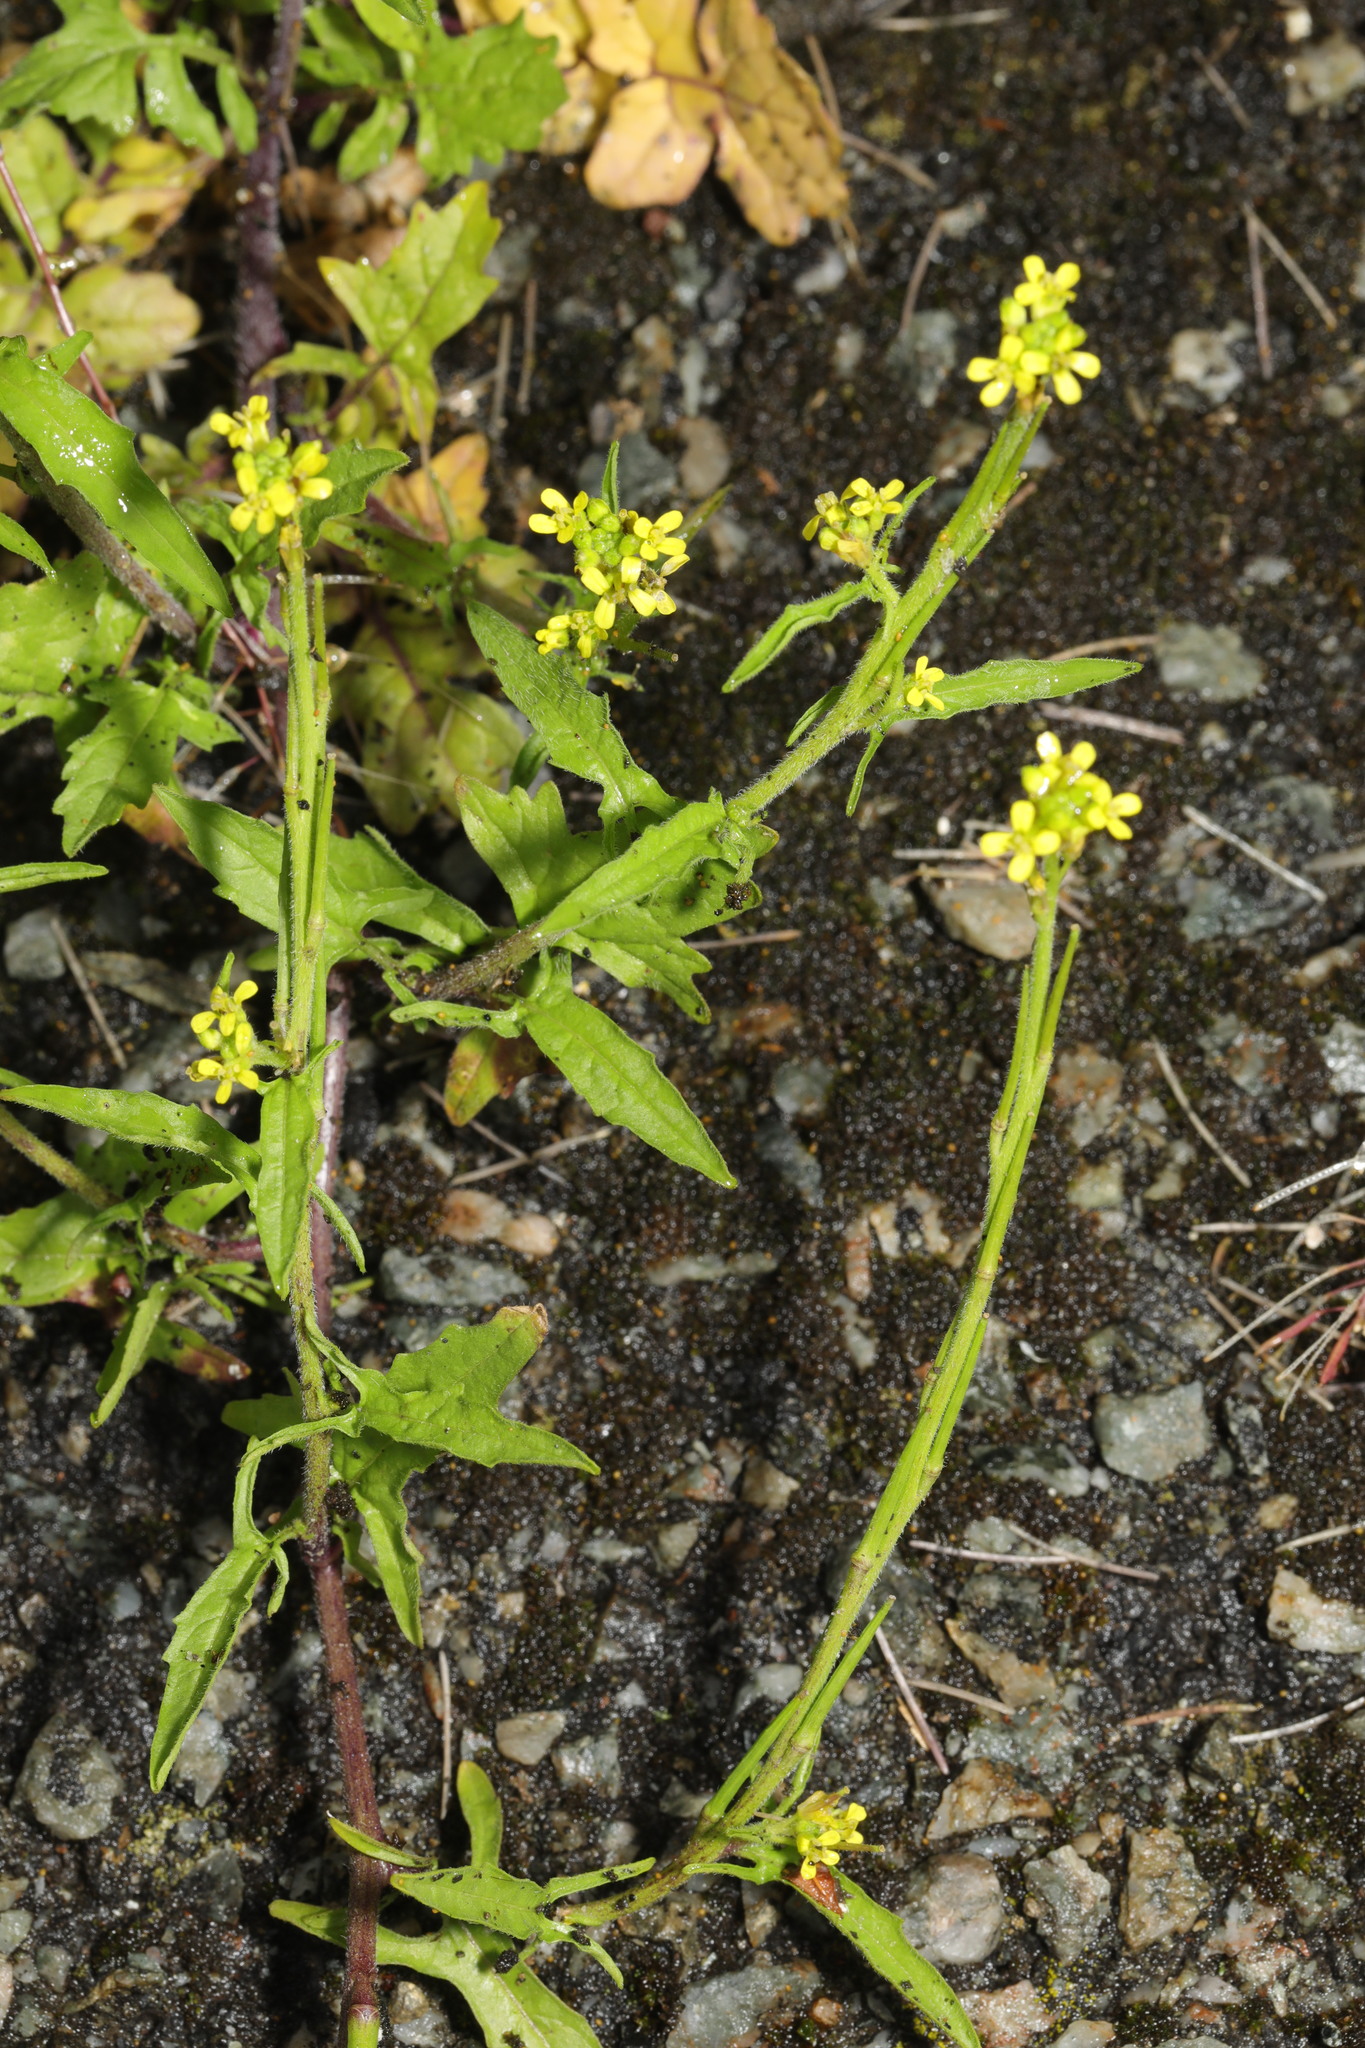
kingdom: Plantae
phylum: Tracheophyta
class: Magnoliopsida
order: Brassicales
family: Brassicaceae
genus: Sisymbrium
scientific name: Sisymbrium officinale
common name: Hedge mustard
